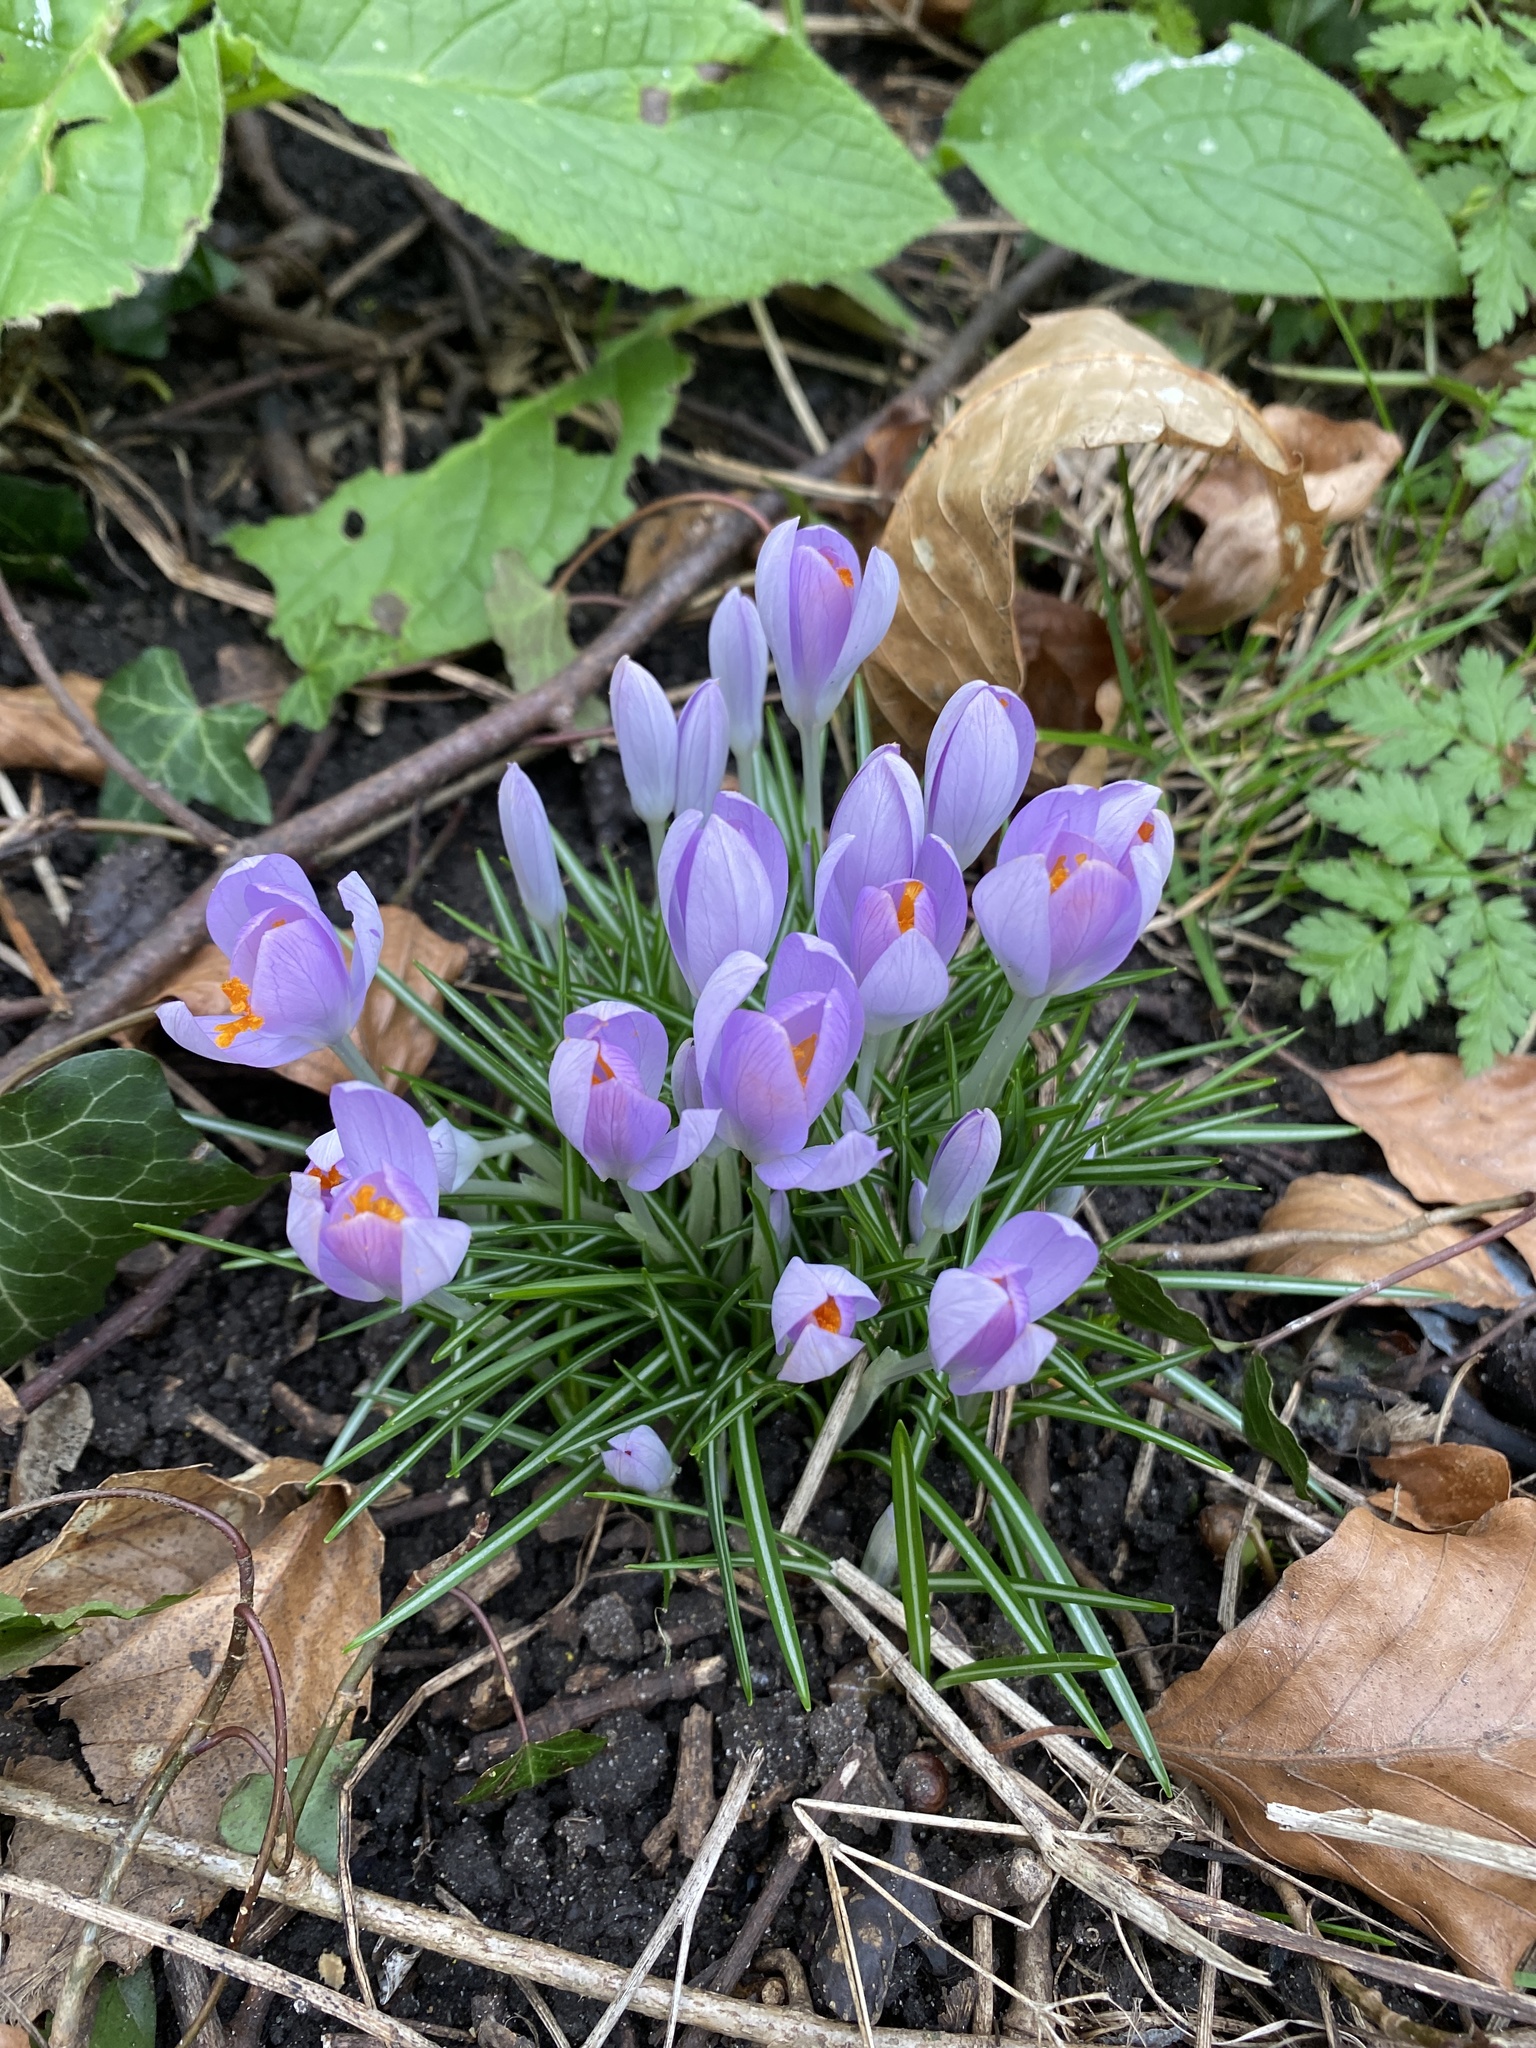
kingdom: Plantae
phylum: Tracheophyta
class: Liliopsida
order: Asparagales
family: Iridaceae
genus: Crocus
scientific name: Crocus tommasinianus
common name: Early crocus
